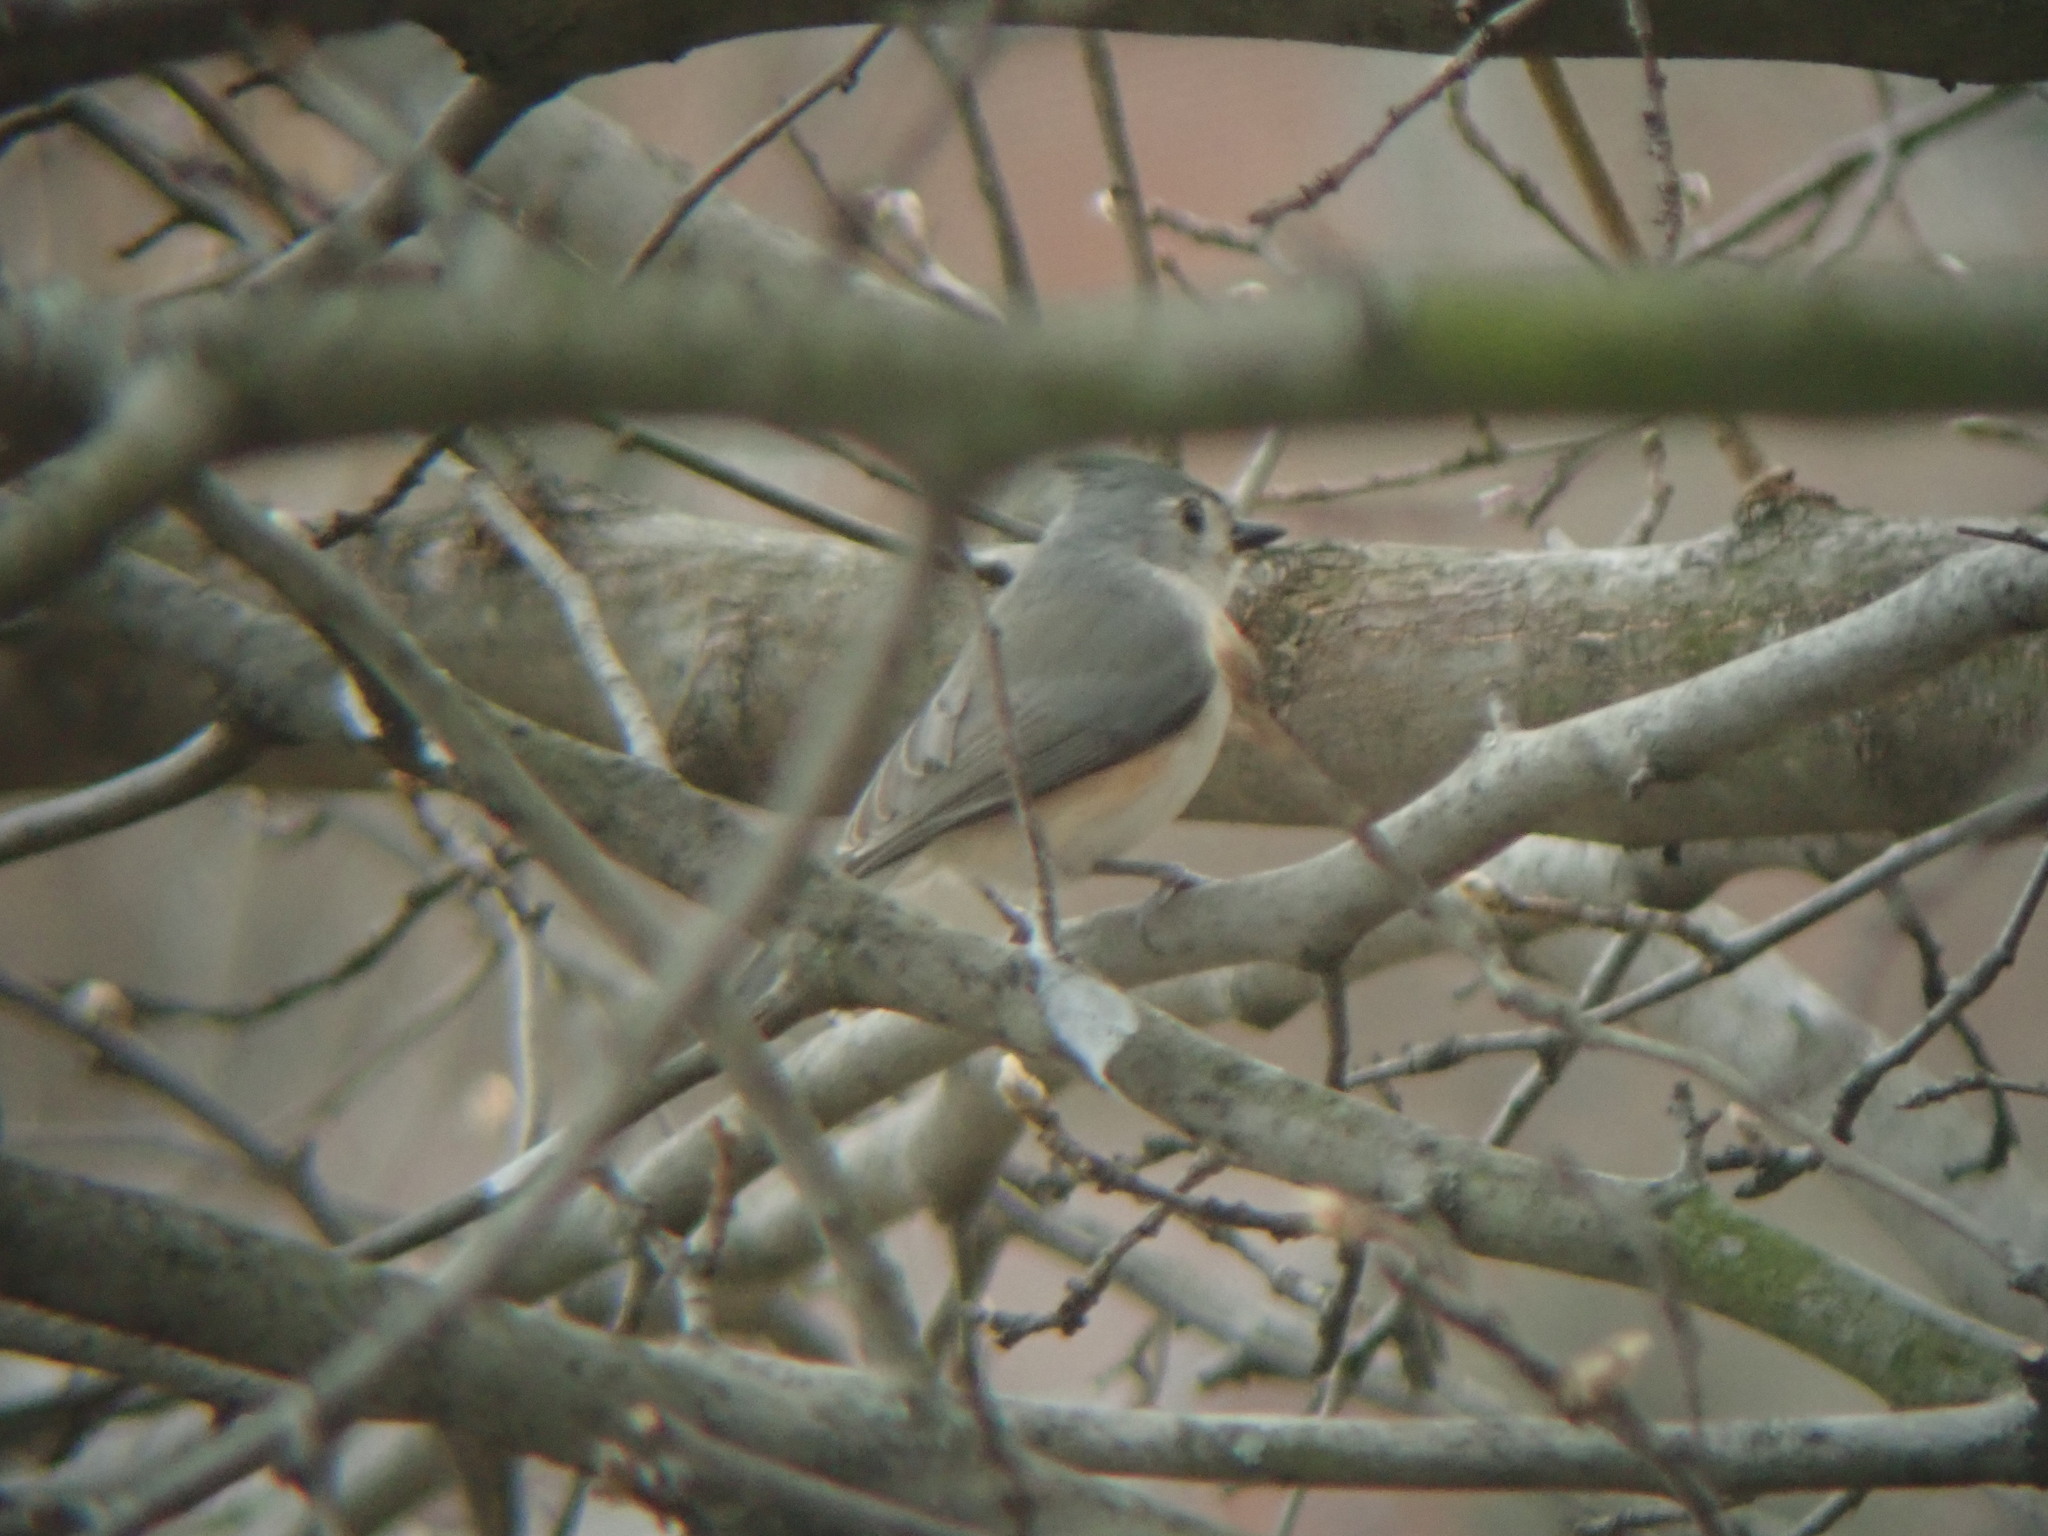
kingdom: Animalia
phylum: Chordata
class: Aves
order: Passeriformes
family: Paridae
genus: Baeolophus
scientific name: Baeolophus bicolor
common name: Tufted titmouse
